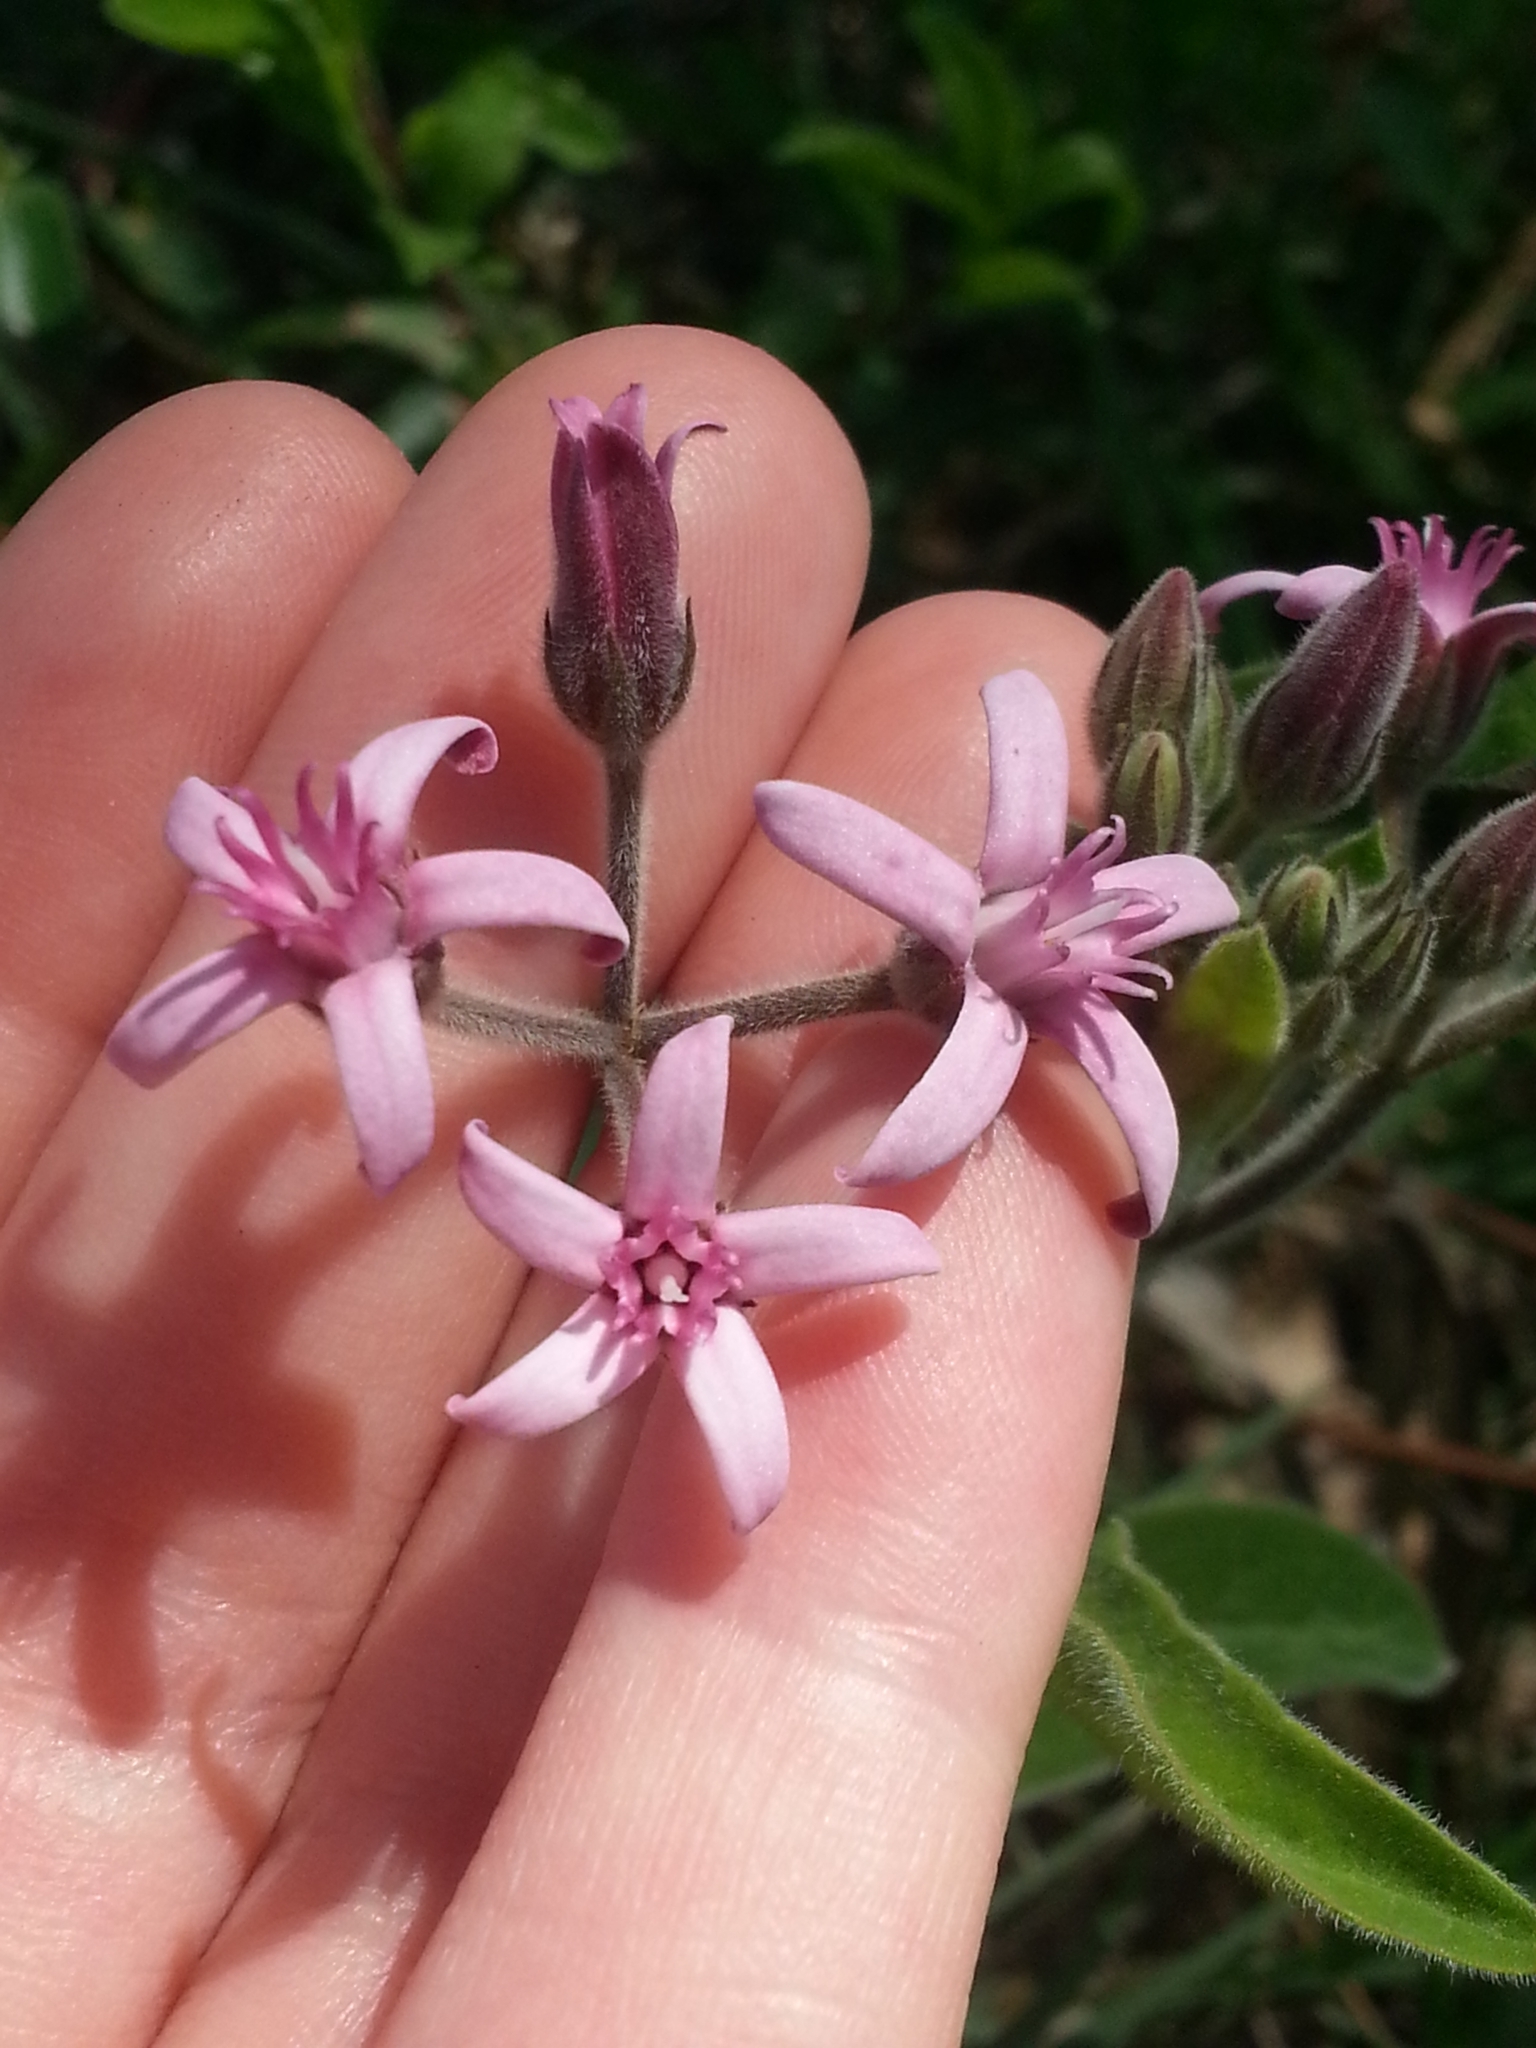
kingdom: Plantae
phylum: Tracheophyta
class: Magnoliopsida
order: Gentianales
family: Apocynaceae
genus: Oxypetalum
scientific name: Oxypetalum solanoides
